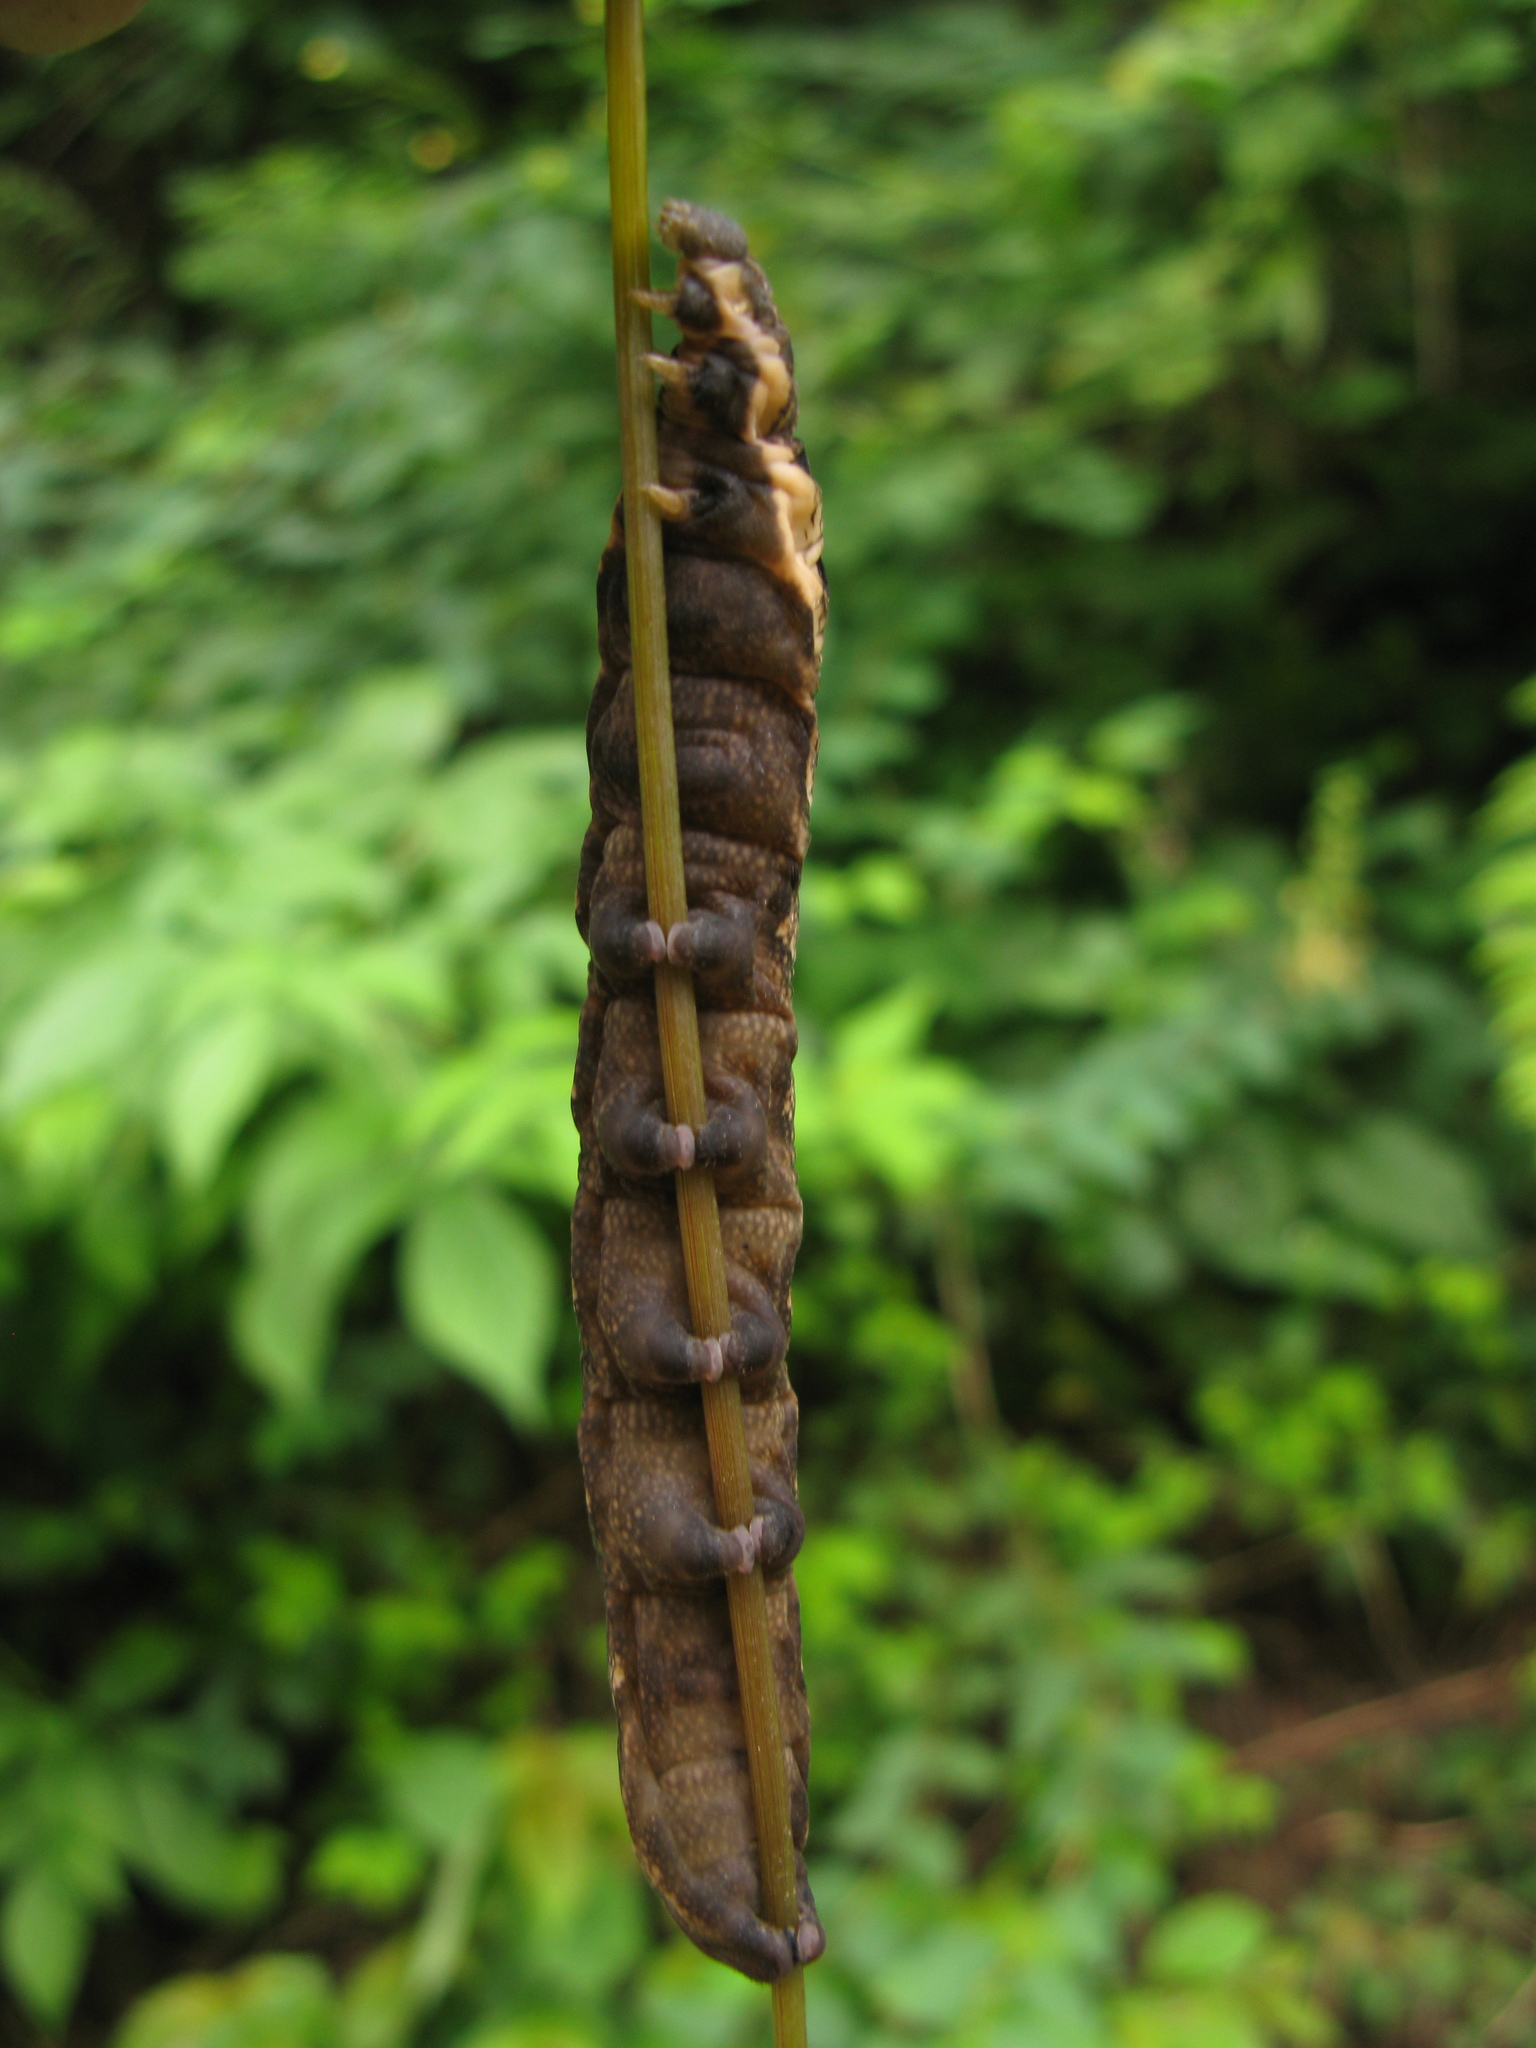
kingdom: Animalia
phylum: Arthropoda
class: Insecta
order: Lepidoptera
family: Sphingidae
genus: Deilephila
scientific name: Deilephila elpenor
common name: Elephant hawk-moth
